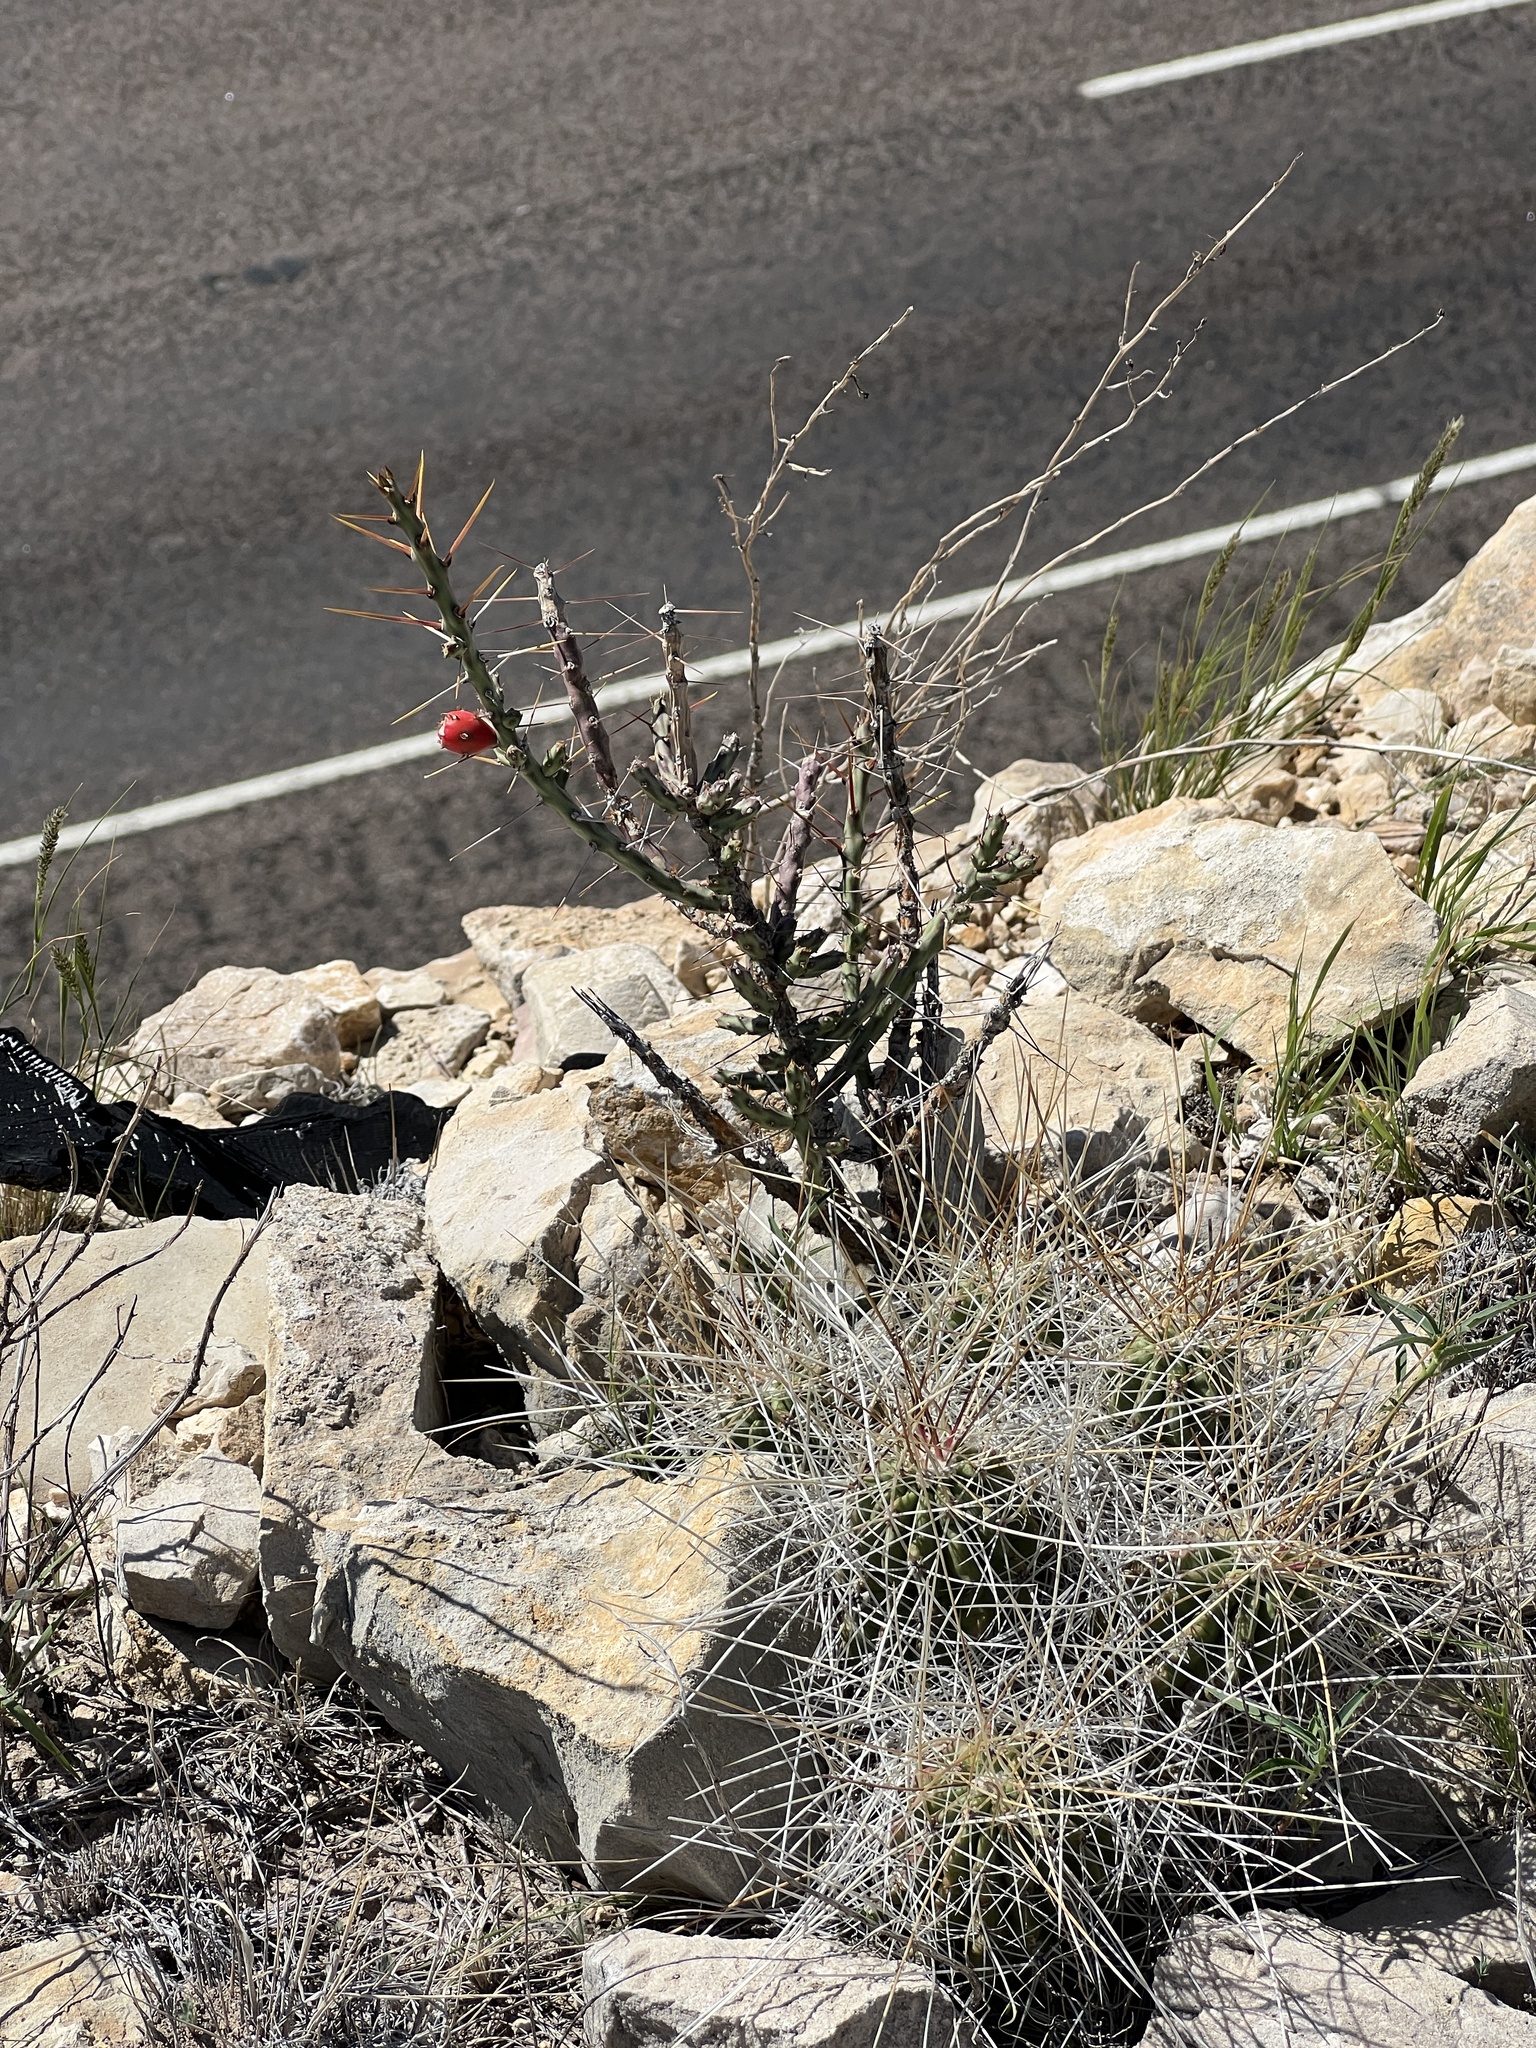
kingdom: Plantae
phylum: Tracheophyta
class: Magnoliopsida
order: Caryophyllales
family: Cactaceae
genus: Cylindropuntia
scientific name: Cylindropuntia leptocaulis
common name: Christmas cactus
